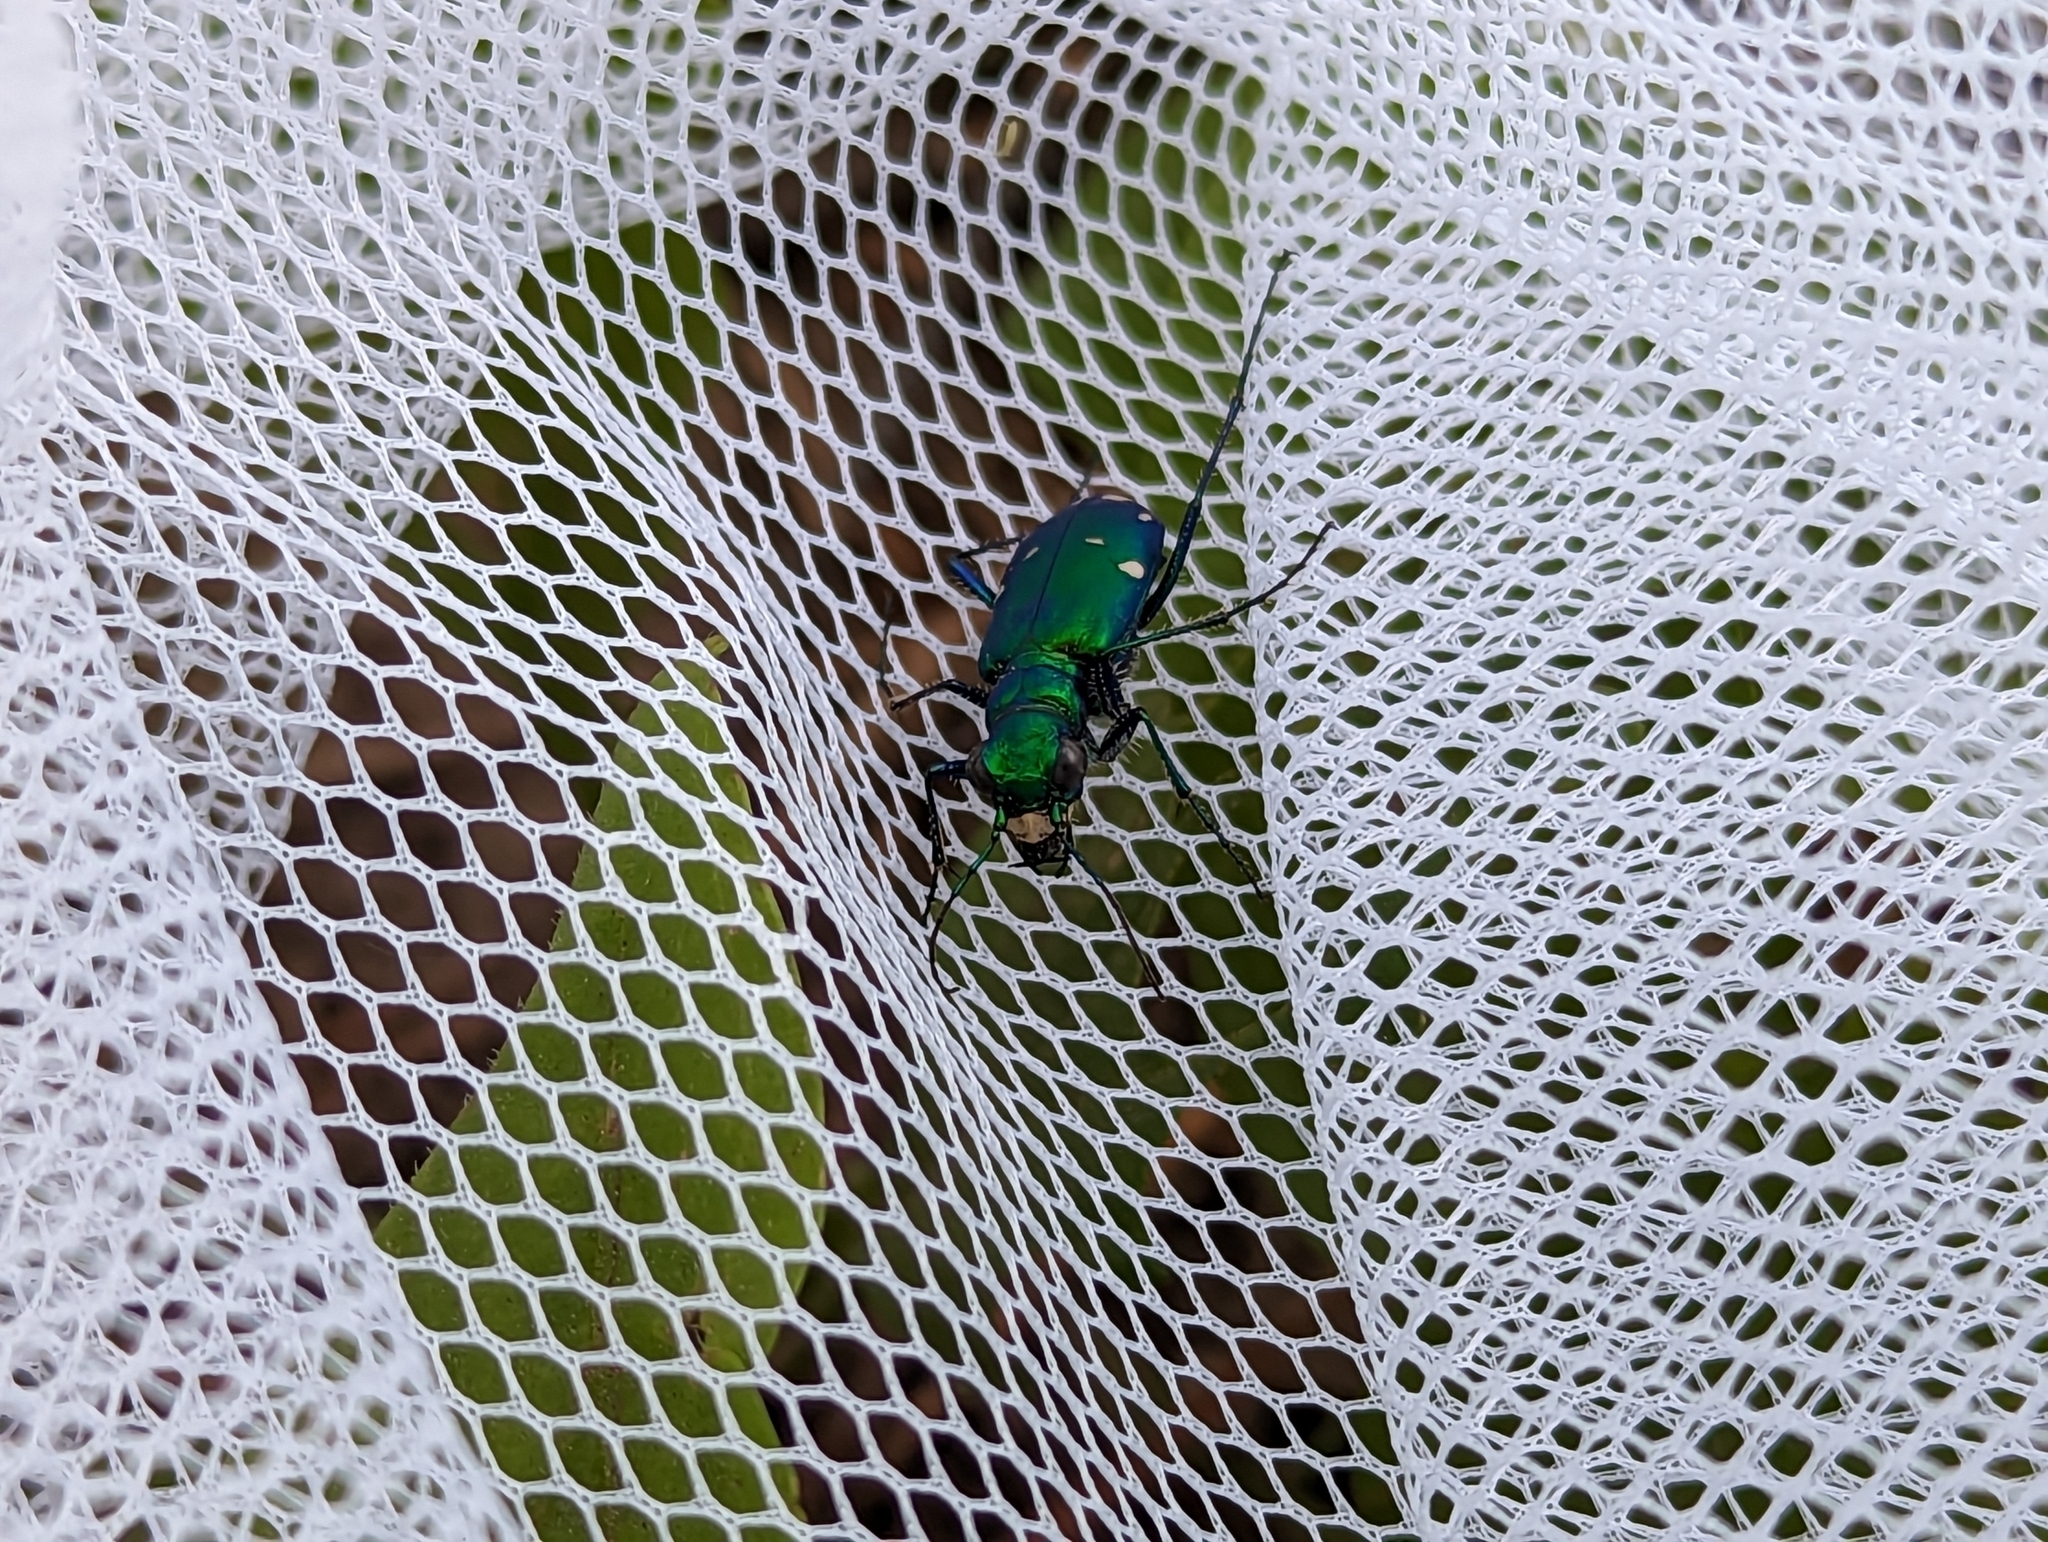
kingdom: Animalia
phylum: Arthropoda
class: Insecta
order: Coleoptera
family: Carabidae
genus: Cicindela
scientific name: Cicindela sexguttata
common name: Six-spotted tiger beetle
